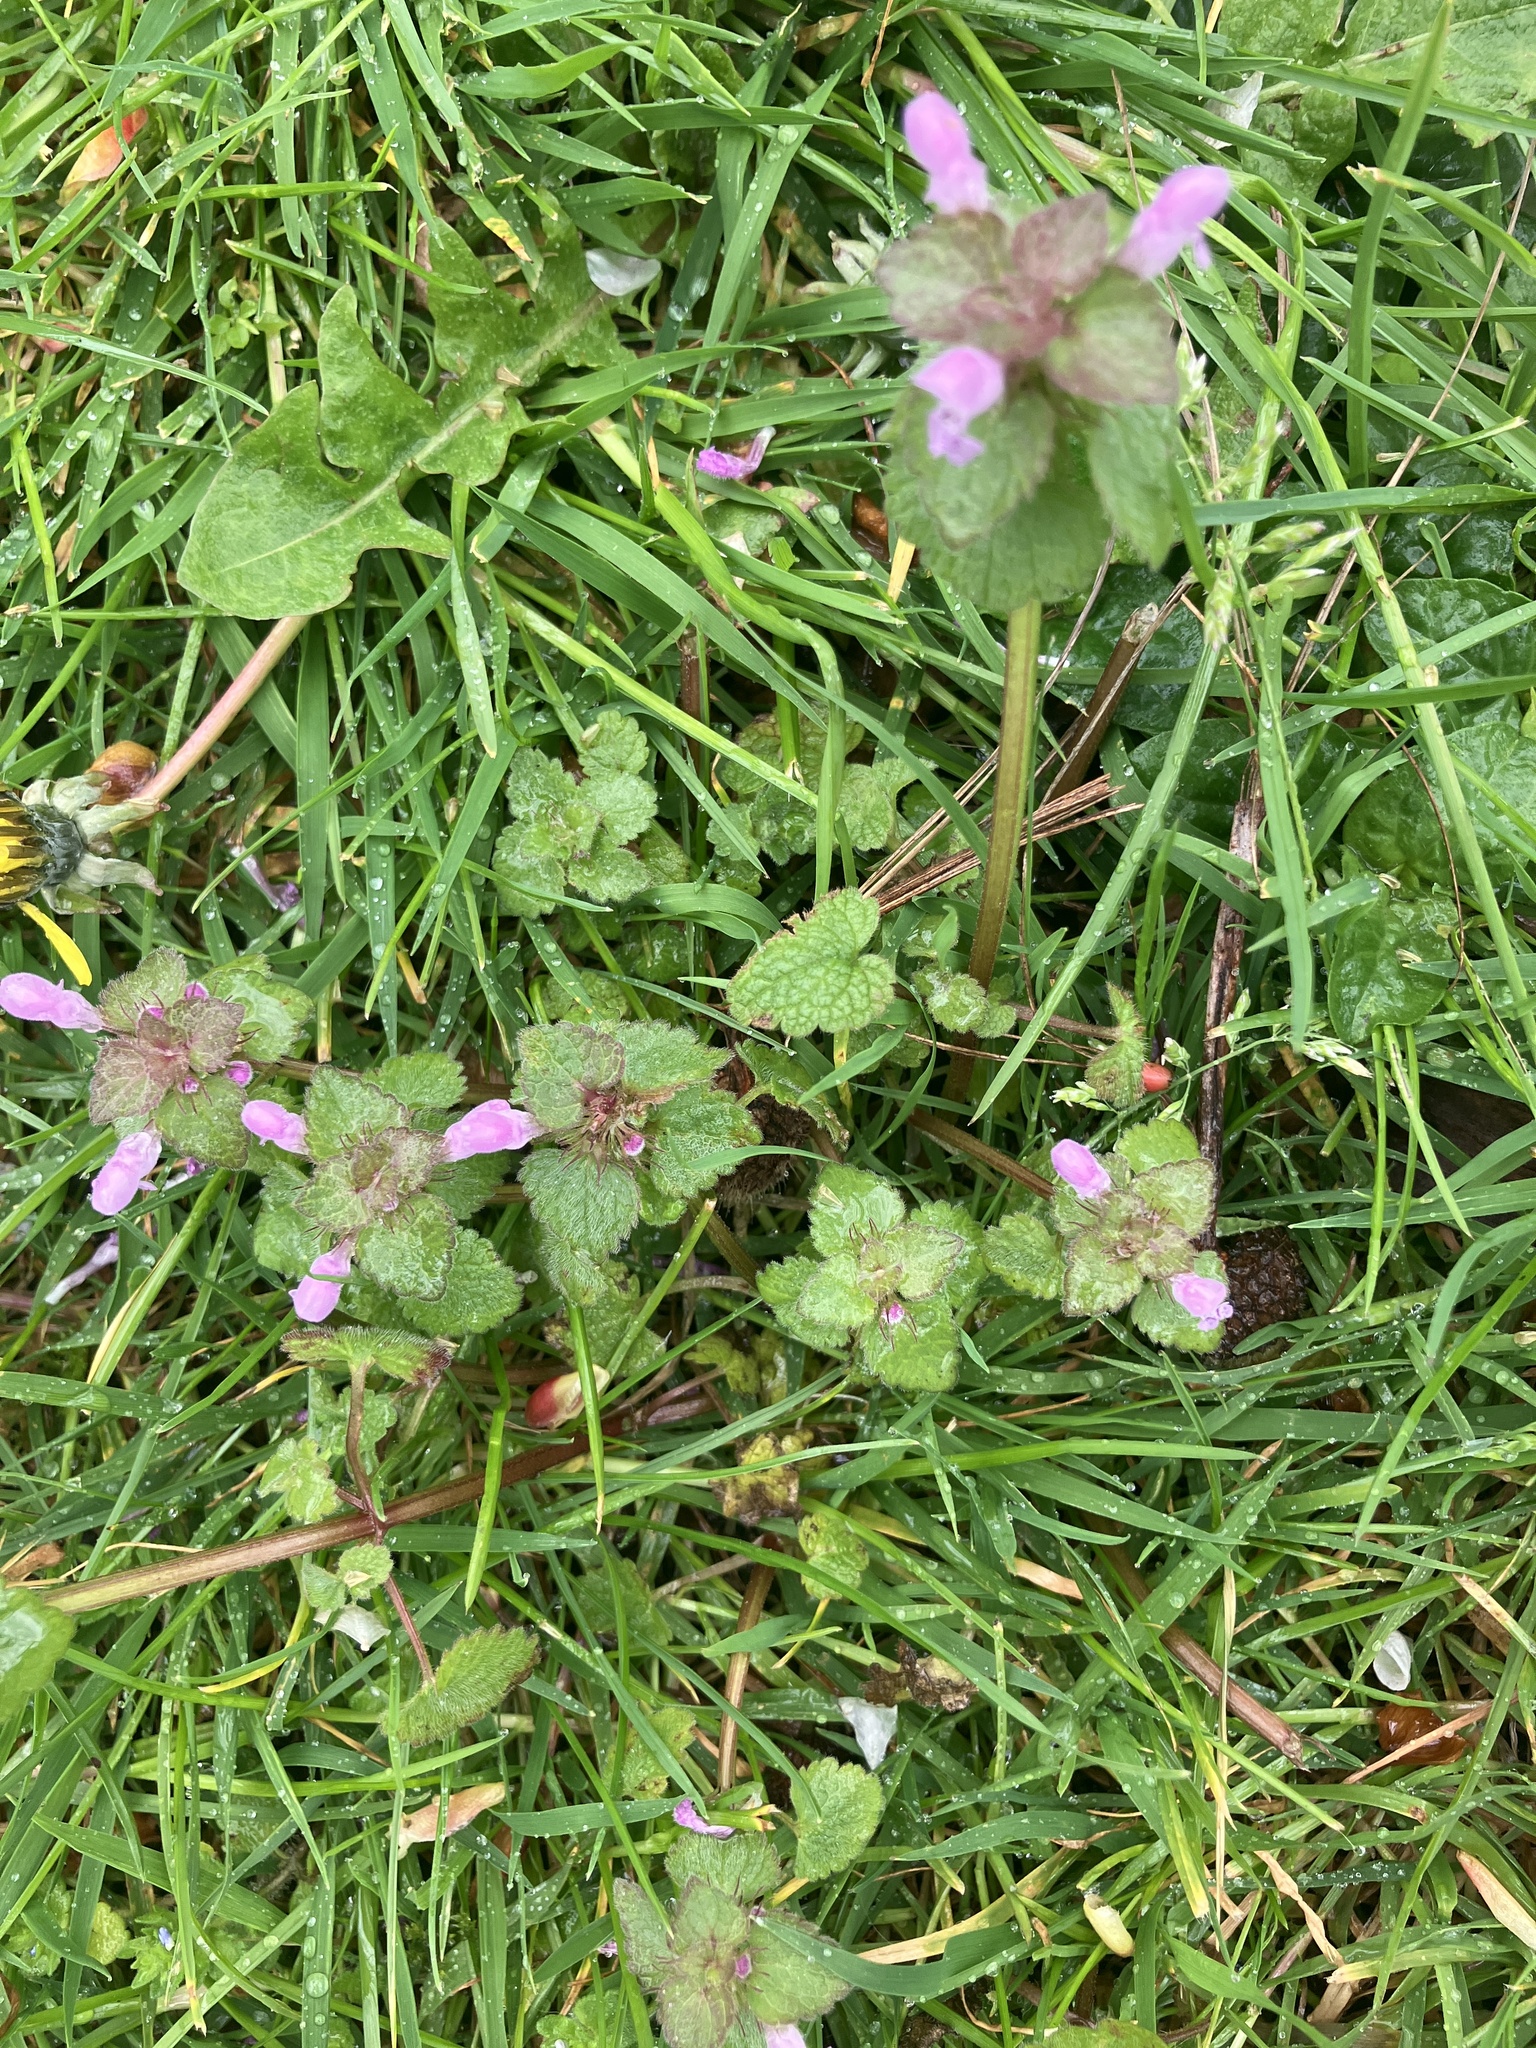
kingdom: Plantae
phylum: Tracheophyta
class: Magnoliopsida
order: Lamiales
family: Lamiaceae
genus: Lamium
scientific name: Lamium purpureum
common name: Red dead-nettle
